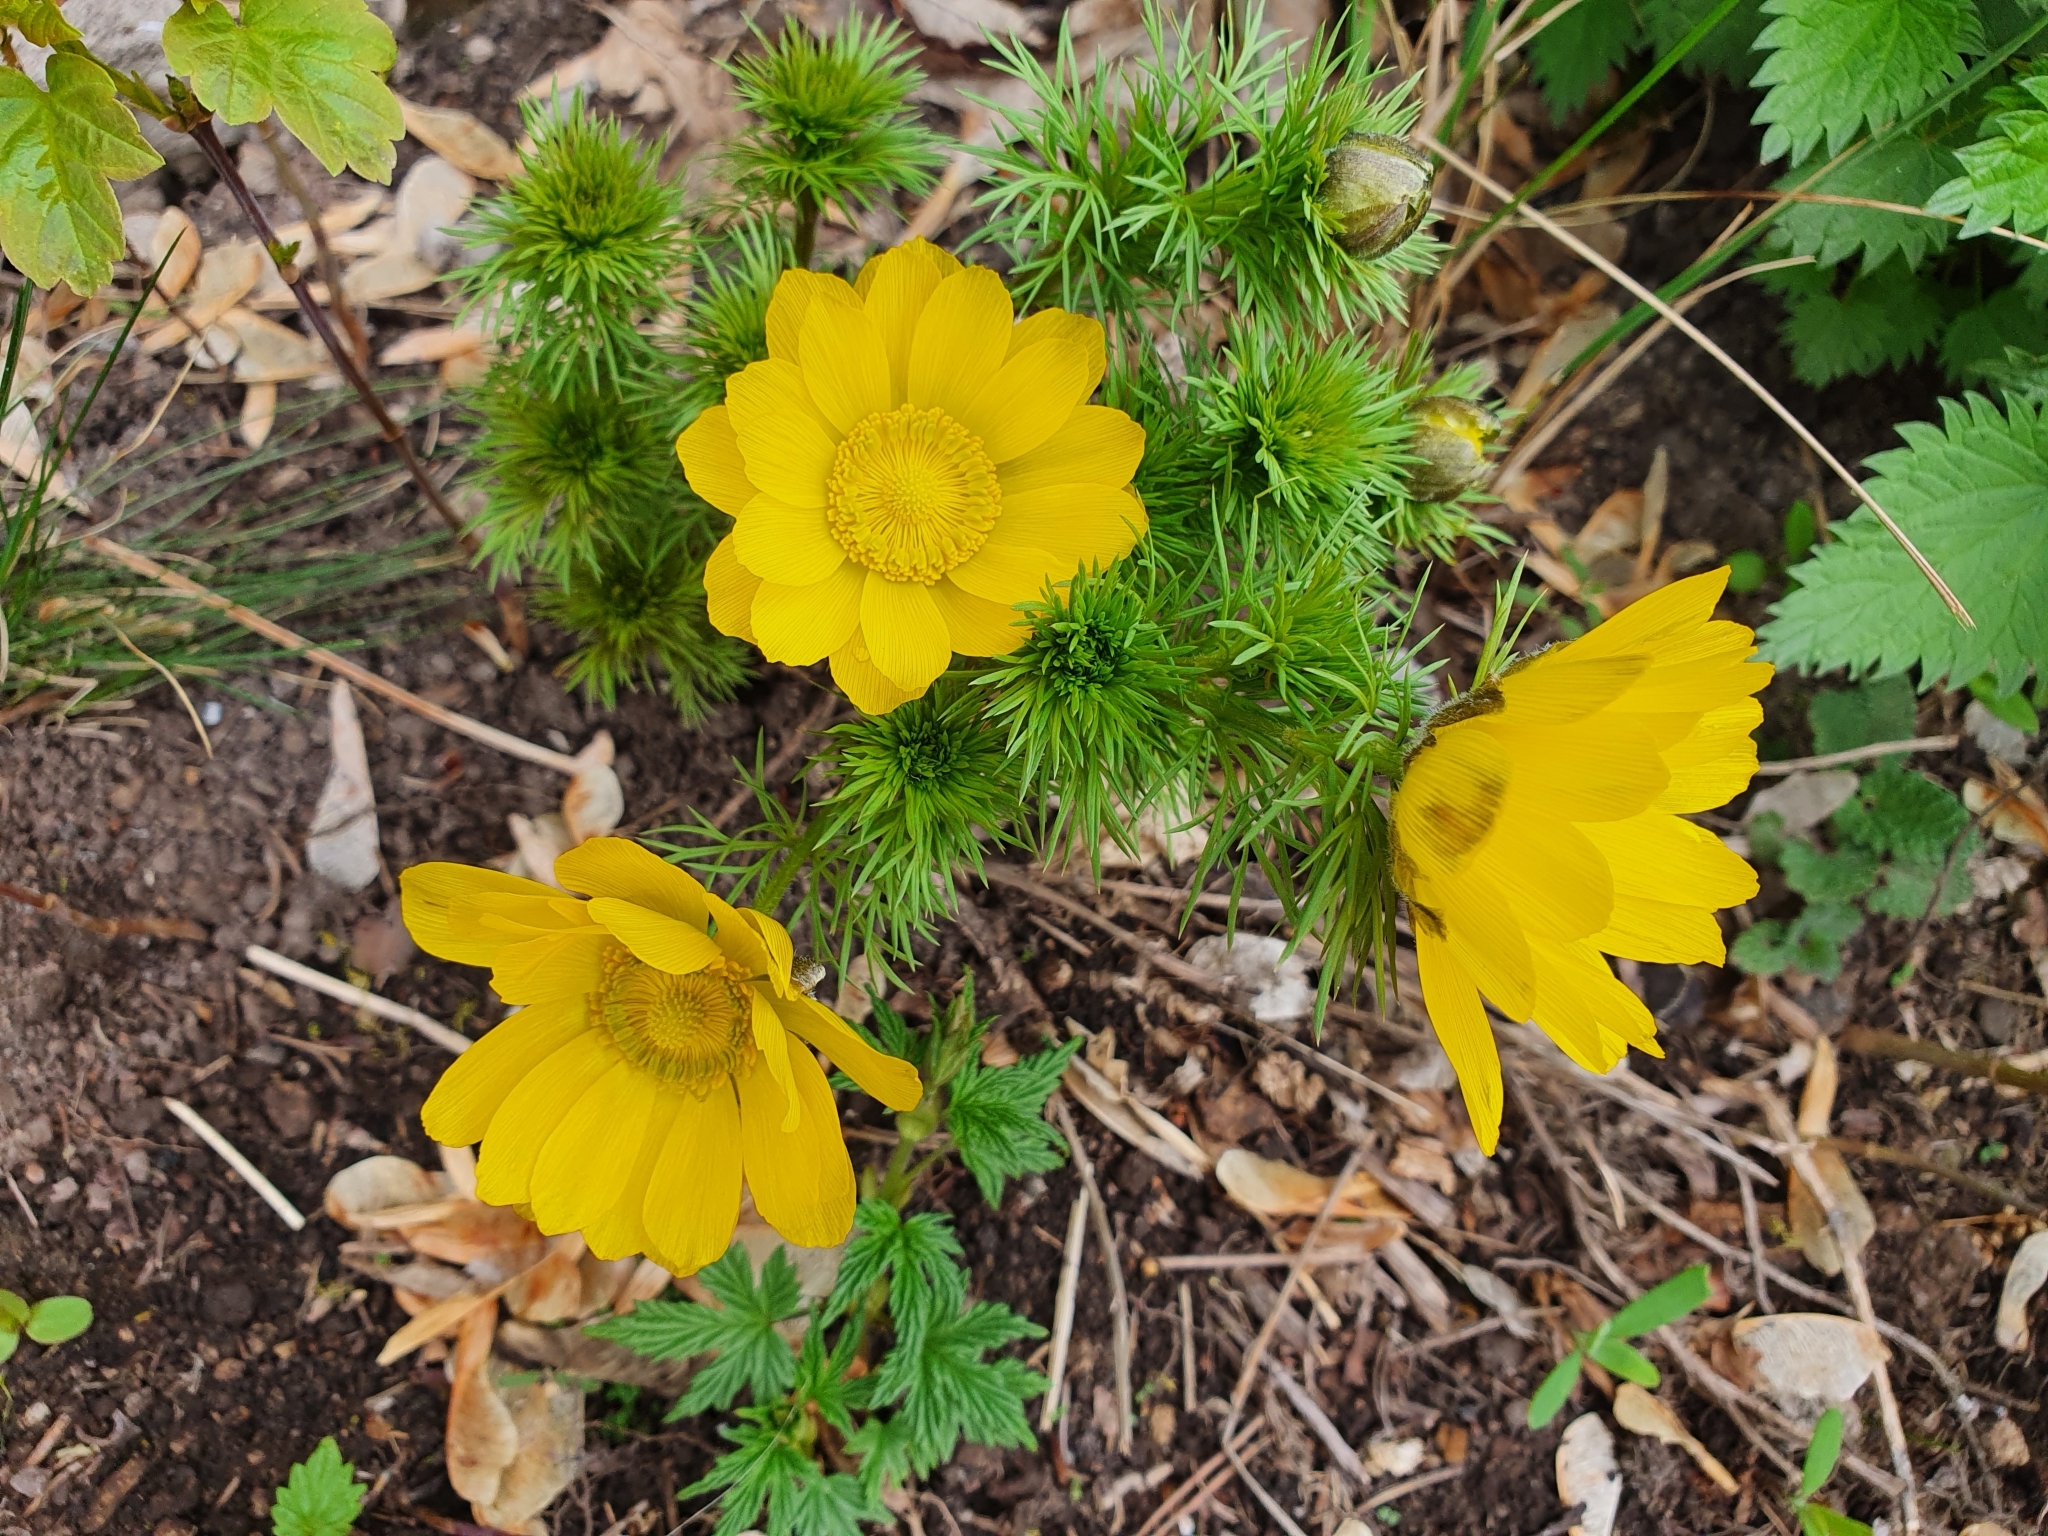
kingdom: Plantae
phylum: Tracheophyta
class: Magnoliopsida
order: Ranunculales
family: Ranunculaceae
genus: Adonis
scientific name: Adonis vernalis
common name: Yellow pheasants-eye
